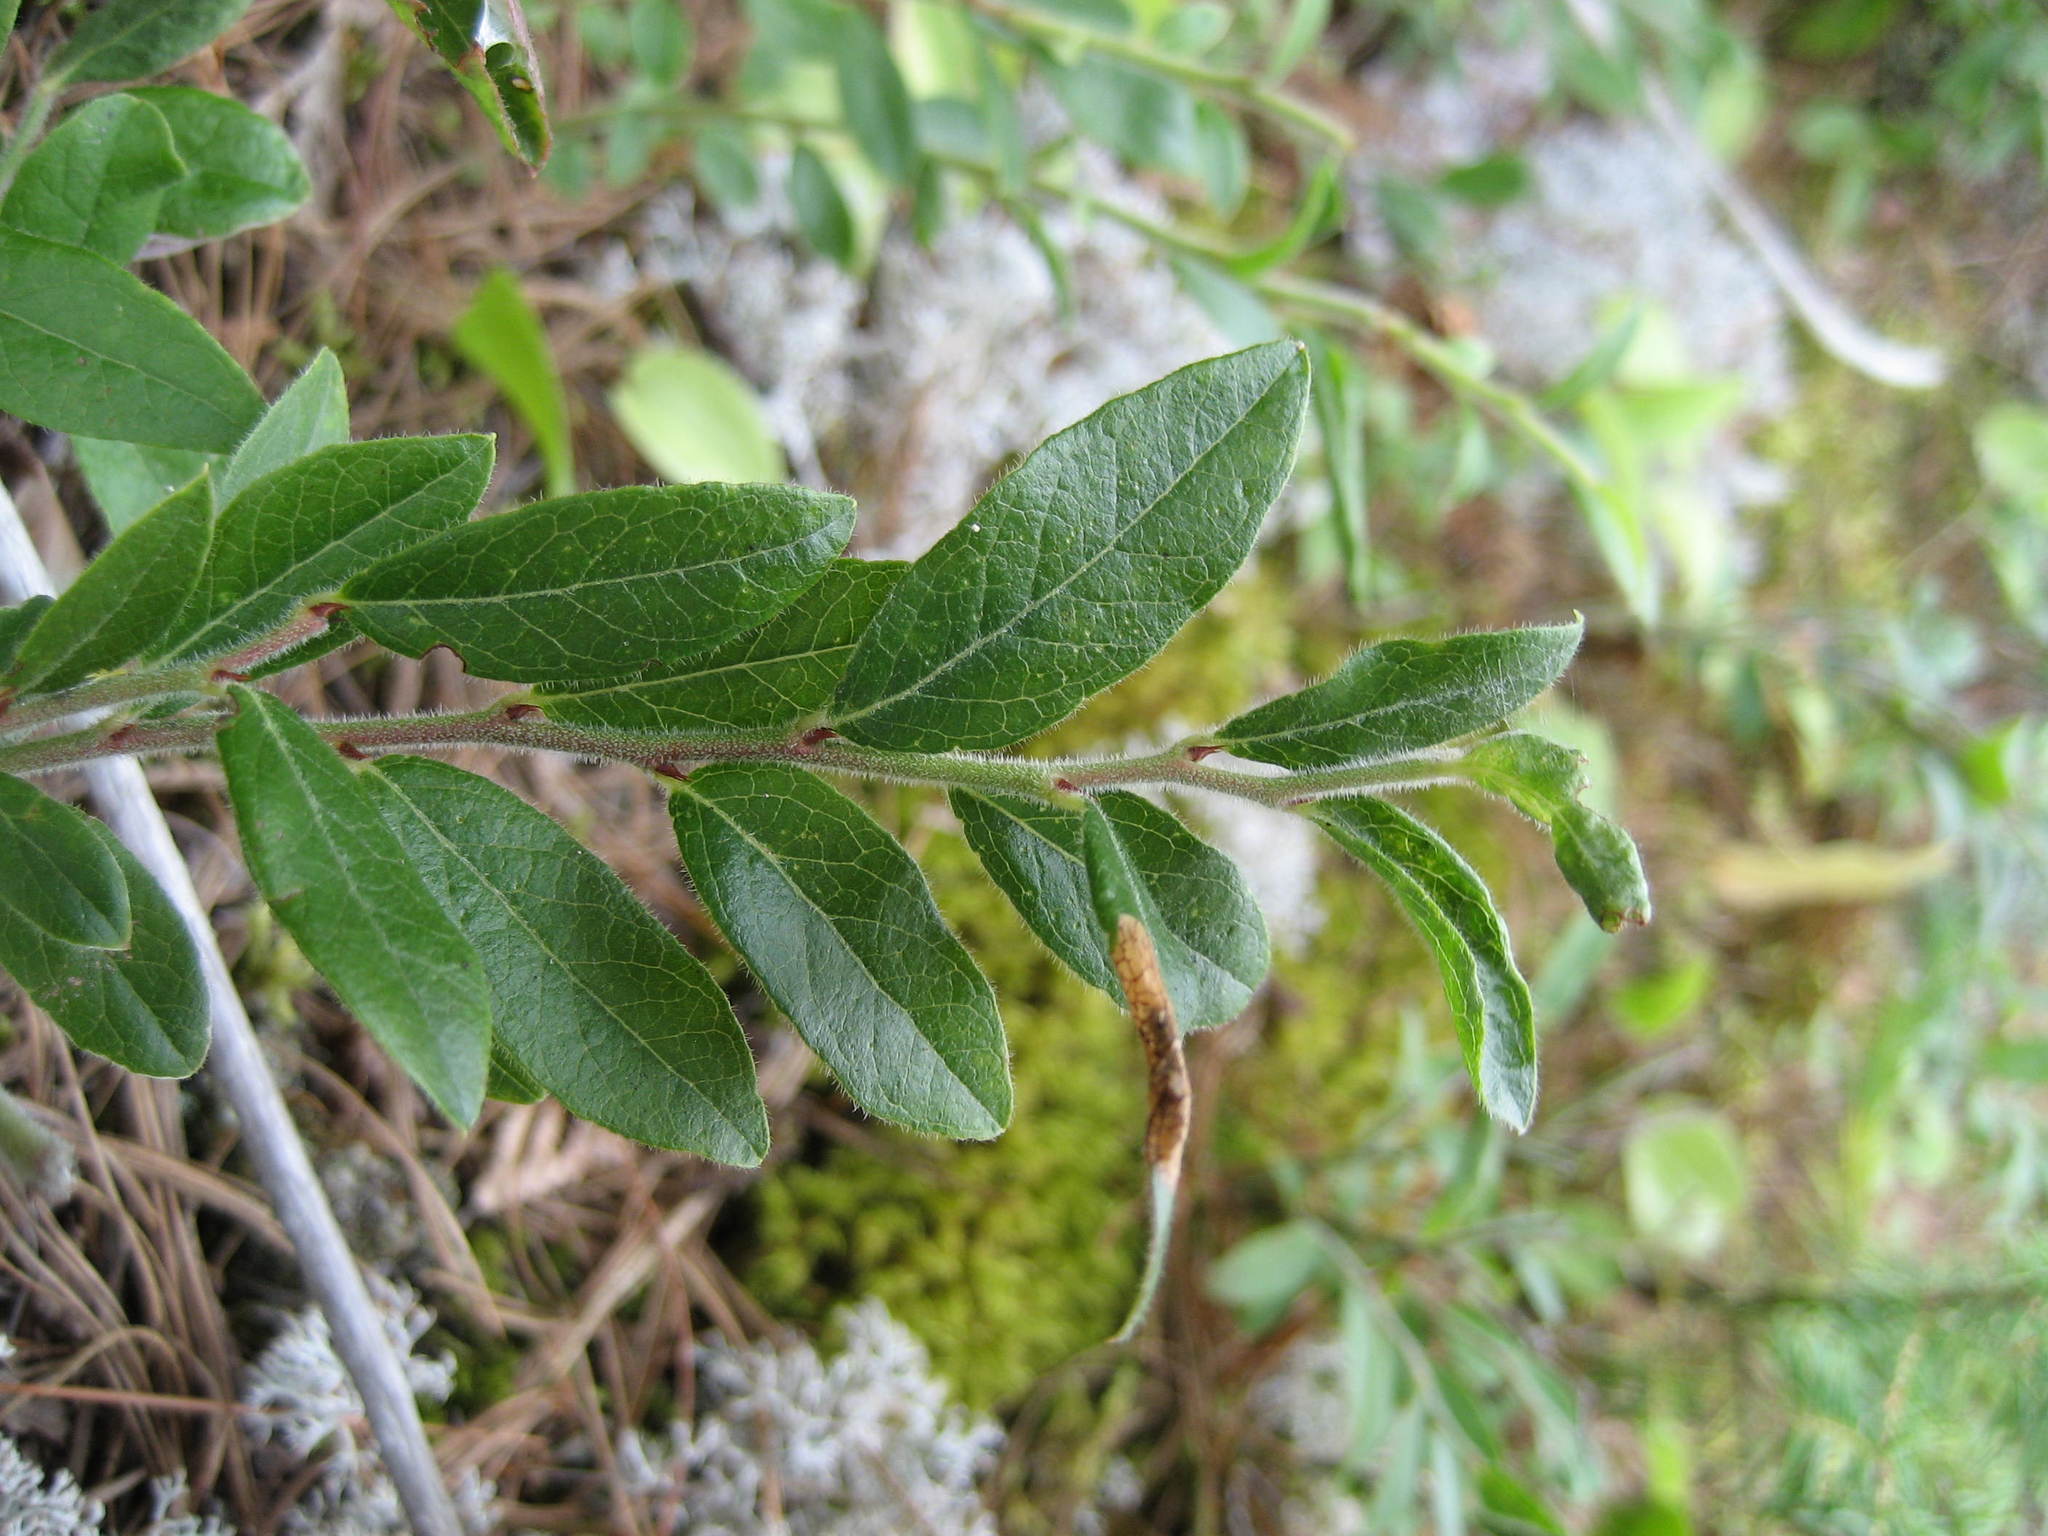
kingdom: Plantae
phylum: Tracheophyta
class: Magnoliopsida
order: Ericales
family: Ericaceae
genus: Vaccinium
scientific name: Vaccinium myrtilloides
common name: Canada blueberry
